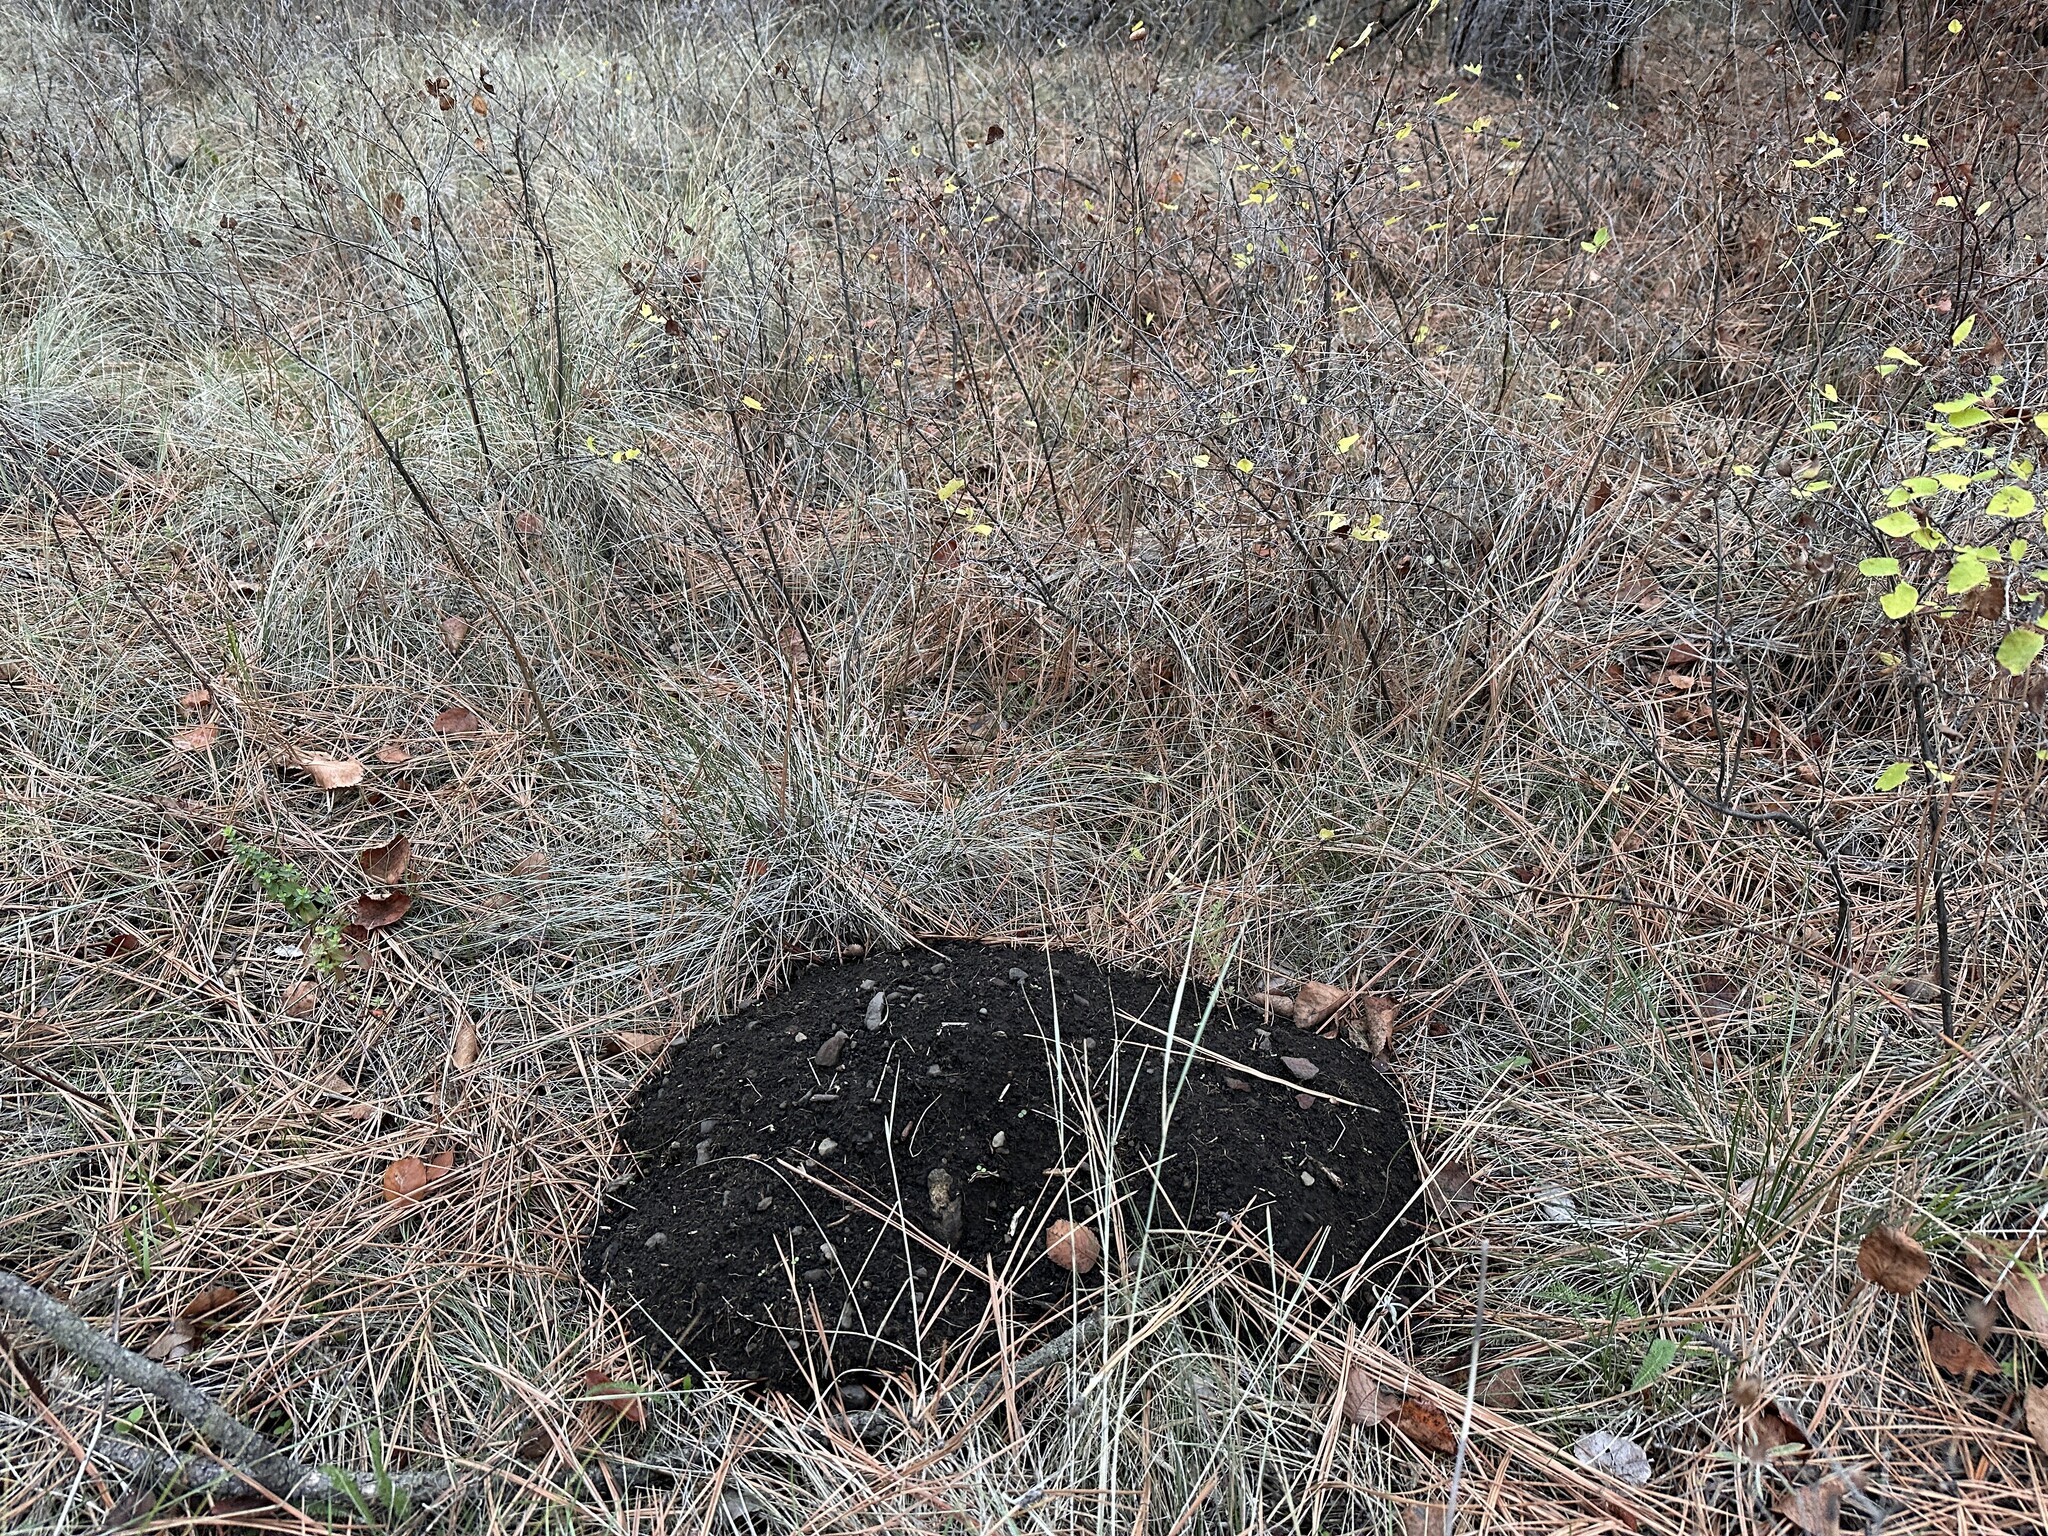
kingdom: Animalia
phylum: Chordata
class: Mammalia
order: Rodentia
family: Geomyidae
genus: Thomomys
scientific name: Thomomys talpoides
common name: Northern pocket gopher
